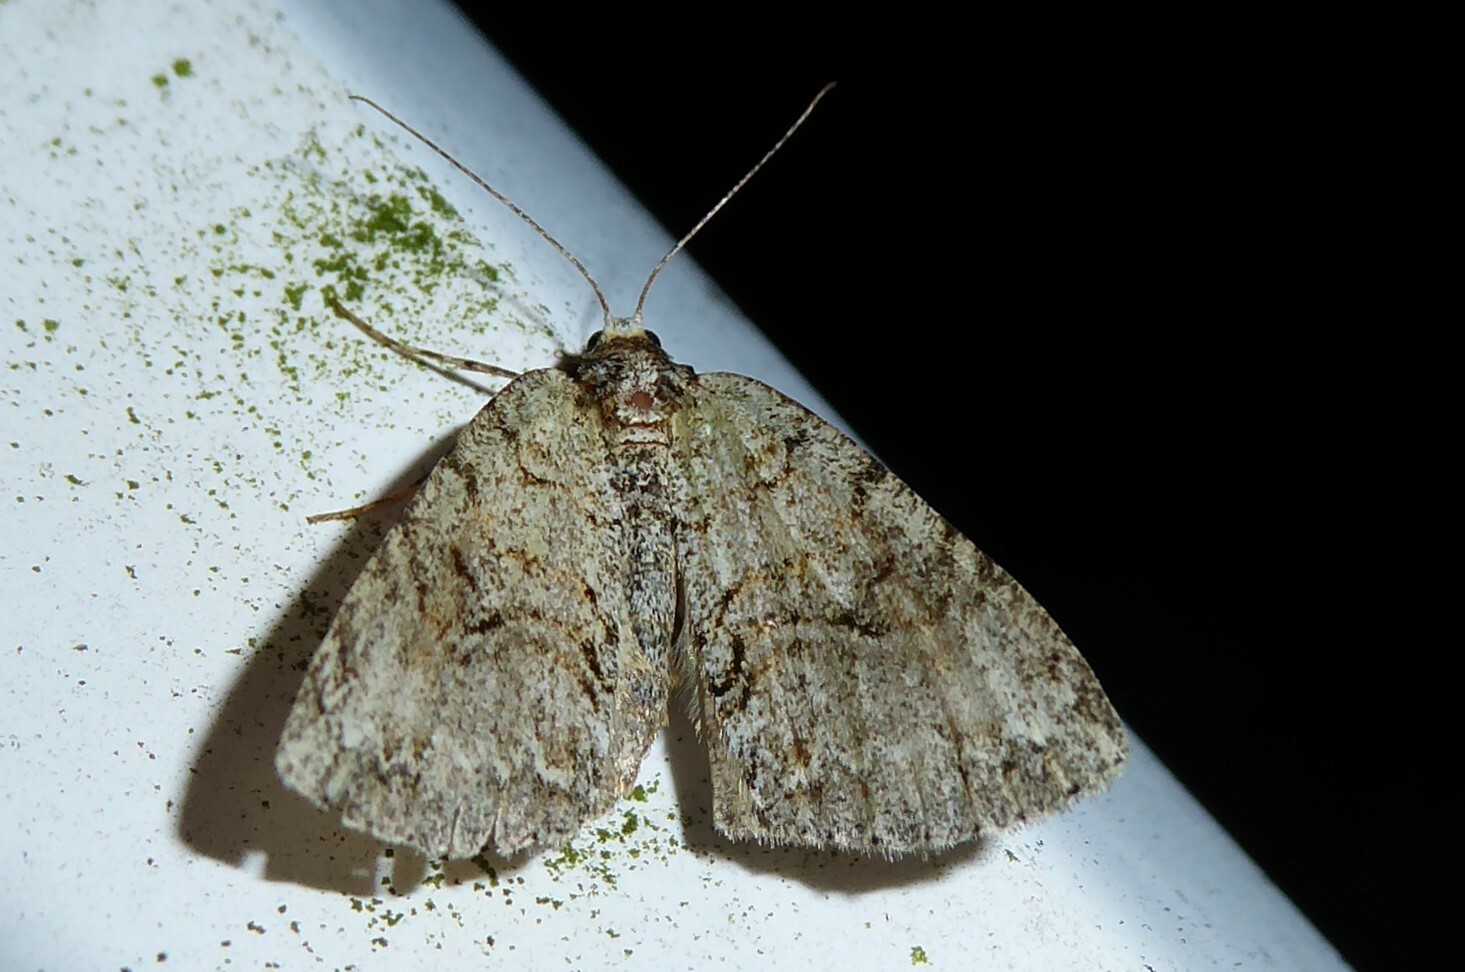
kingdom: Animalia
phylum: Arthropoda
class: Insecta
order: Lepidoptera
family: Geometridae
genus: Pseudocoremia
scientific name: Pseudocoremia suavis
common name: Common forest looper
